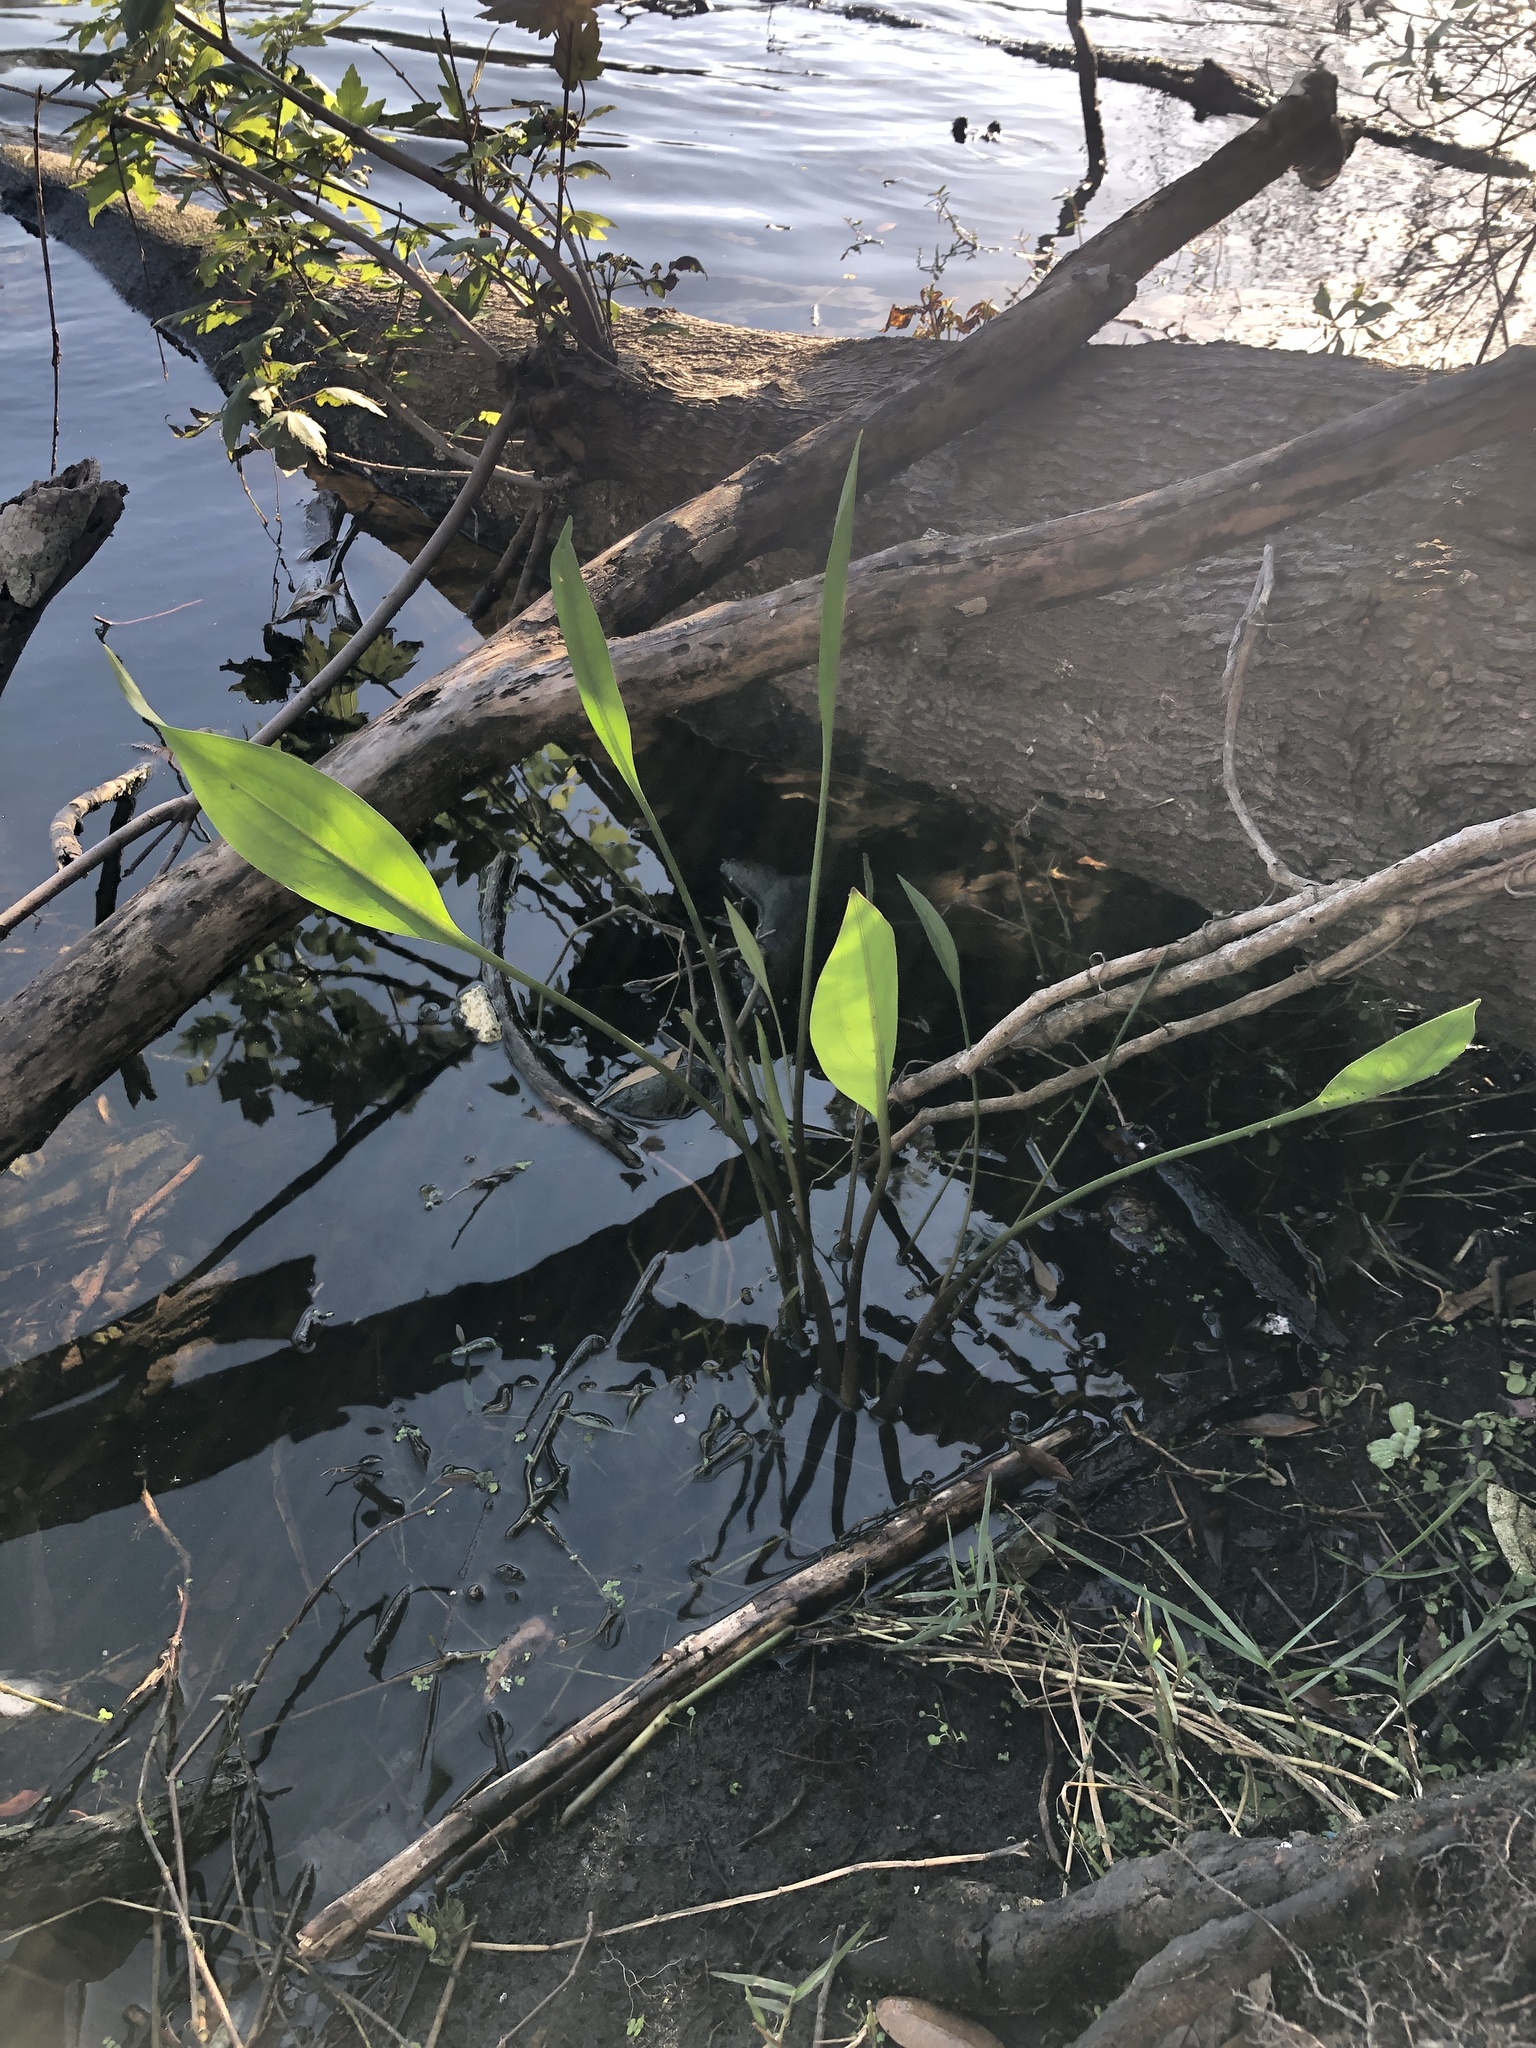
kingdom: Plantae
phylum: Tracheophyta
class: Liliopsida
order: Alismatales
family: Alismataceae
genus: Sagittaria
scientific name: Sagittaria lancifolia
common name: Lance-leaf arrowhead
